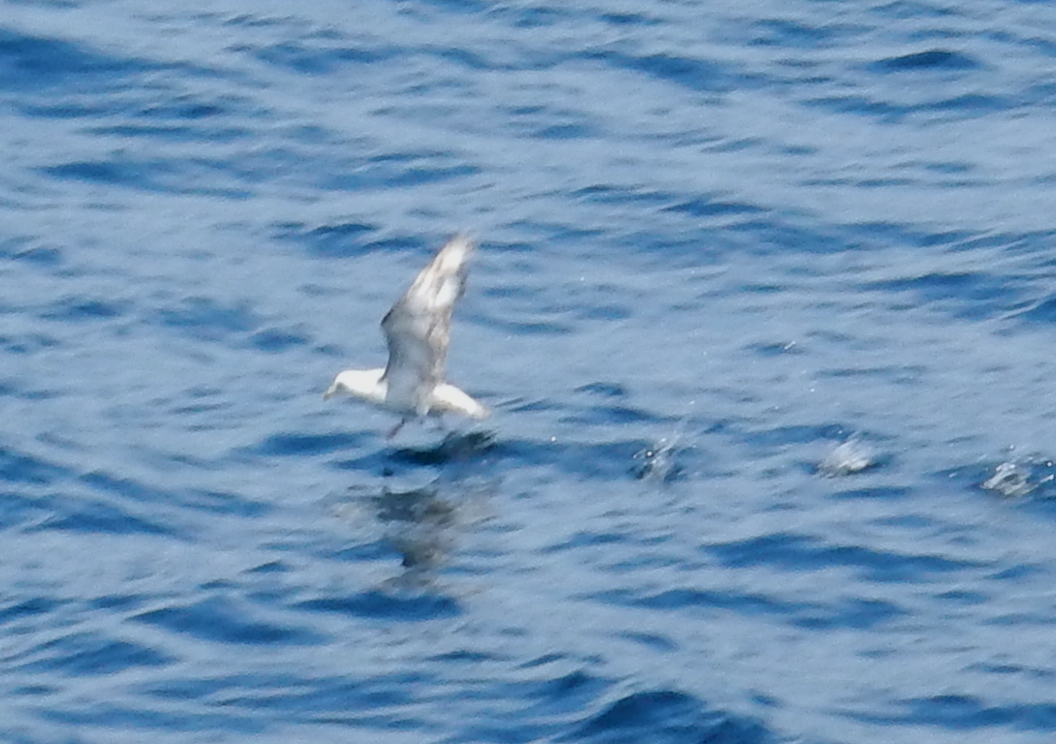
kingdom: Animalia
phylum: Chordata
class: Aves
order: Procellariiformes
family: Procellariidae
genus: Fulmarus
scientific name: Fulmarus glacialis
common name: Northern fulmar
